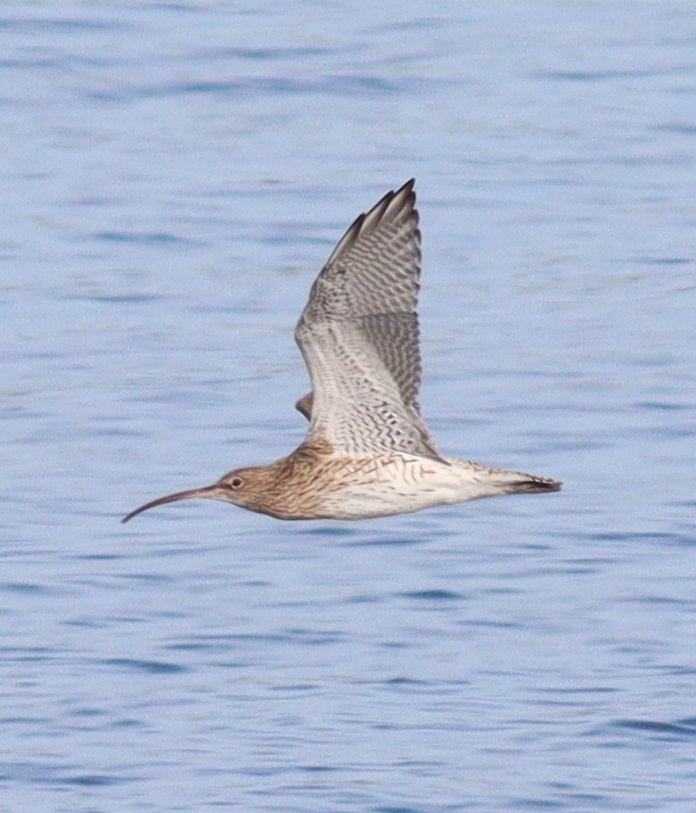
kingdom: Animalia
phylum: Chordata
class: Aves
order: Charadriiformes
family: Scolopacidae
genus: Numenius
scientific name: Numenius arquata
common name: Eurasian curlew
